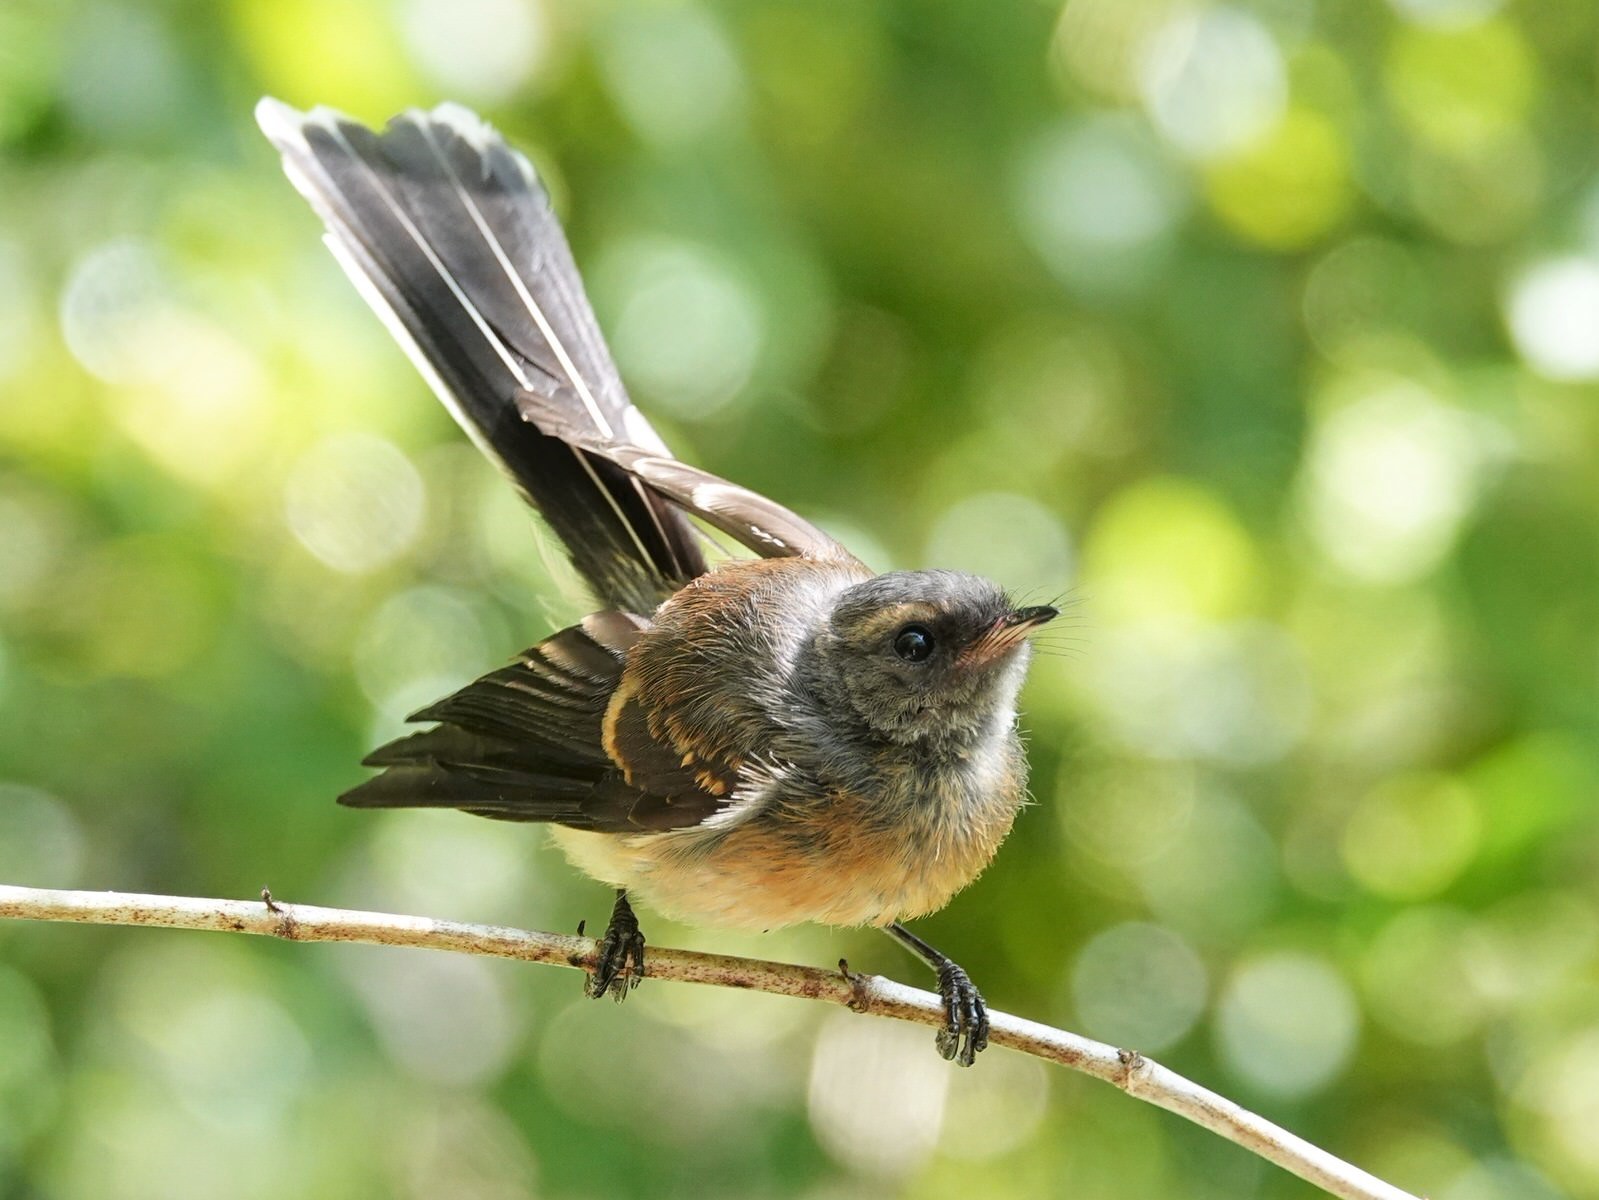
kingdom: Animalia
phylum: Chordata
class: Aves
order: Passeriformes
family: Rhipiduridae
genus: Rhipidura
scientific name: Rhipidura fuliginosa
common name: New zealand fantail
